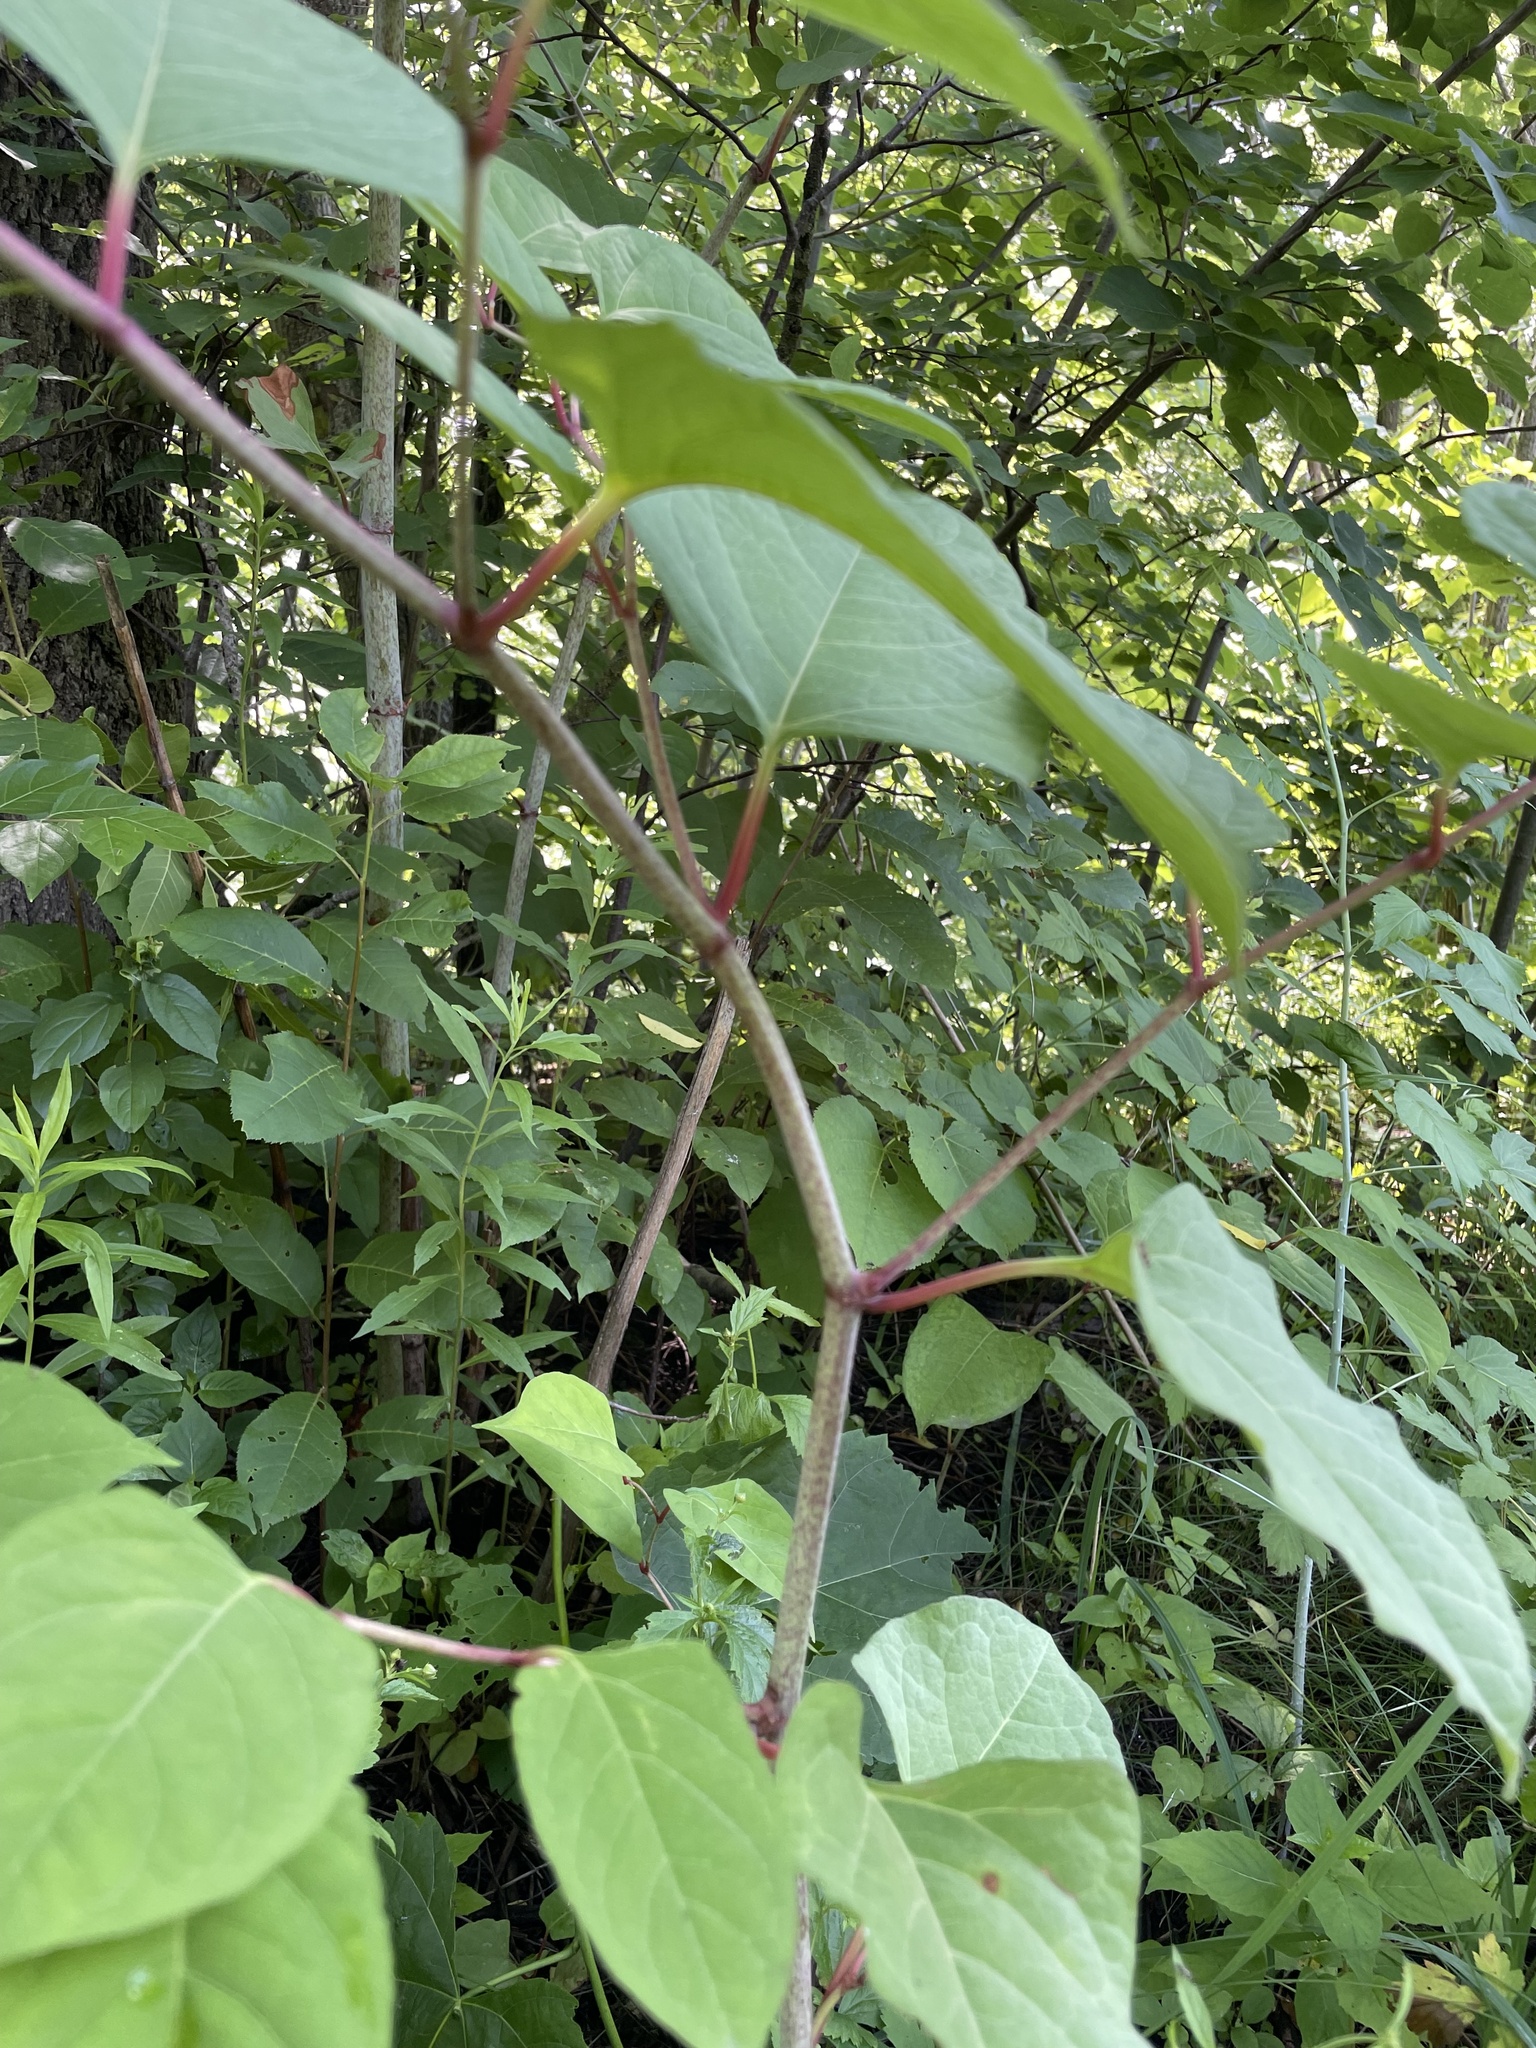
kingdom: Plantae
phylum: Tracheophyta
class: Magnoliopsida
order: Caryophyllales
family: Polygonaceae
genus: Reynoutria
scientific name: Reynoutria japonica
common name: Japanese knotweed
